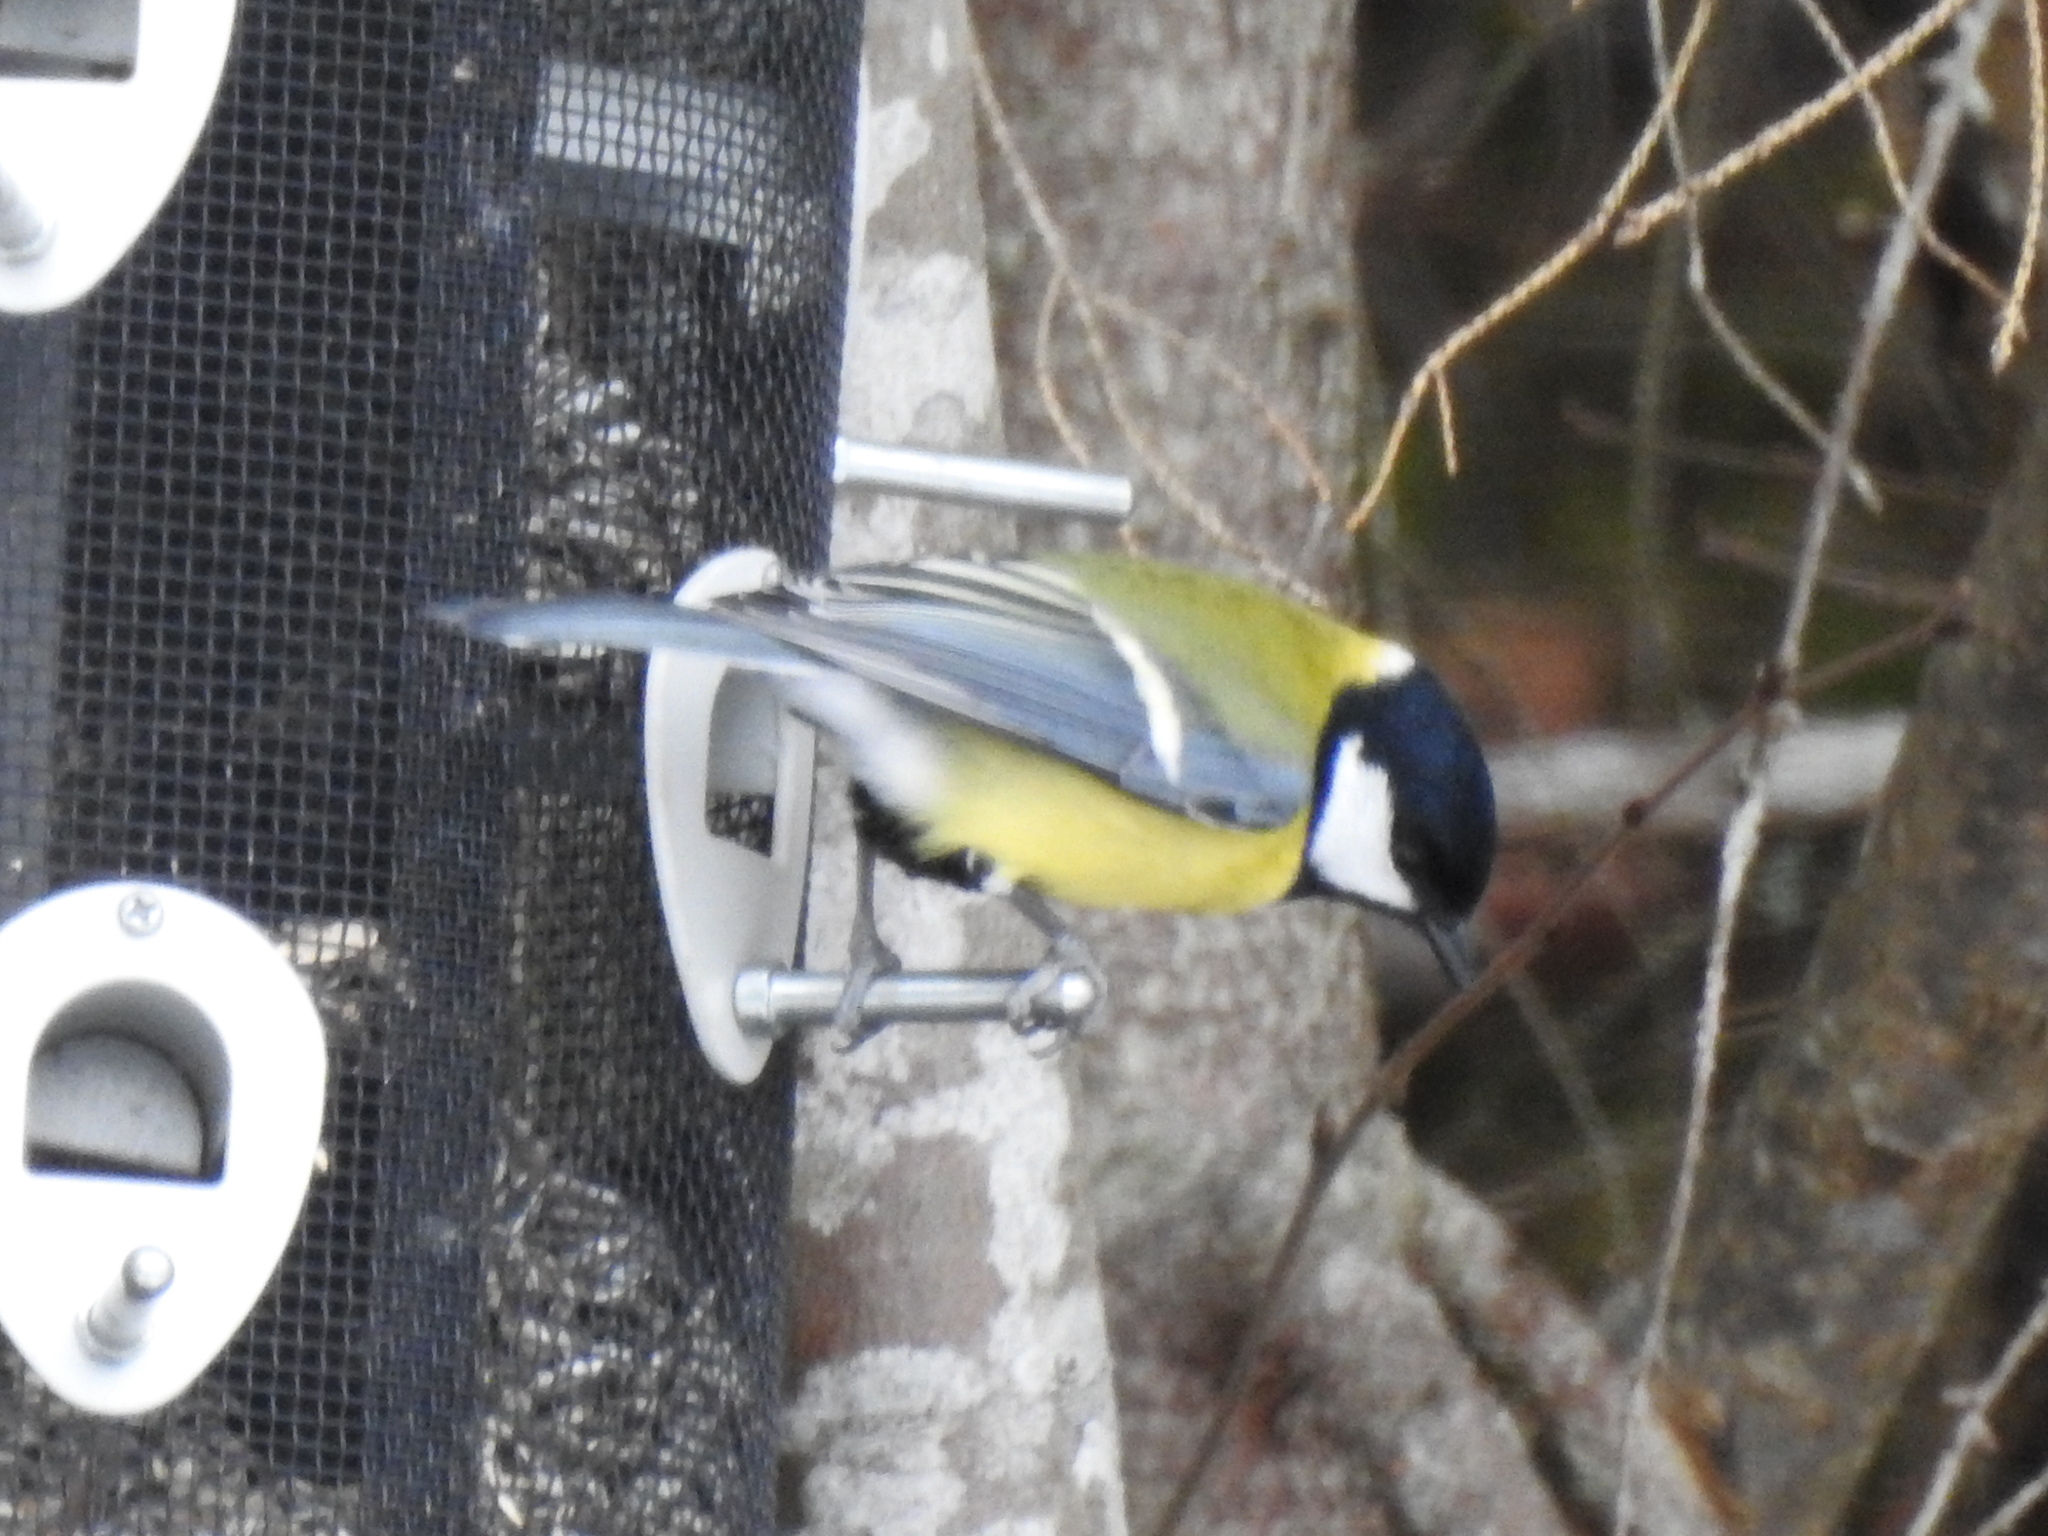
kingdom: Animalia
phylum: Chordata
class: Aves
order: Passeriformes
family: Paridae
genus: Parus
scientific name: Parus major
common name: Great tit
